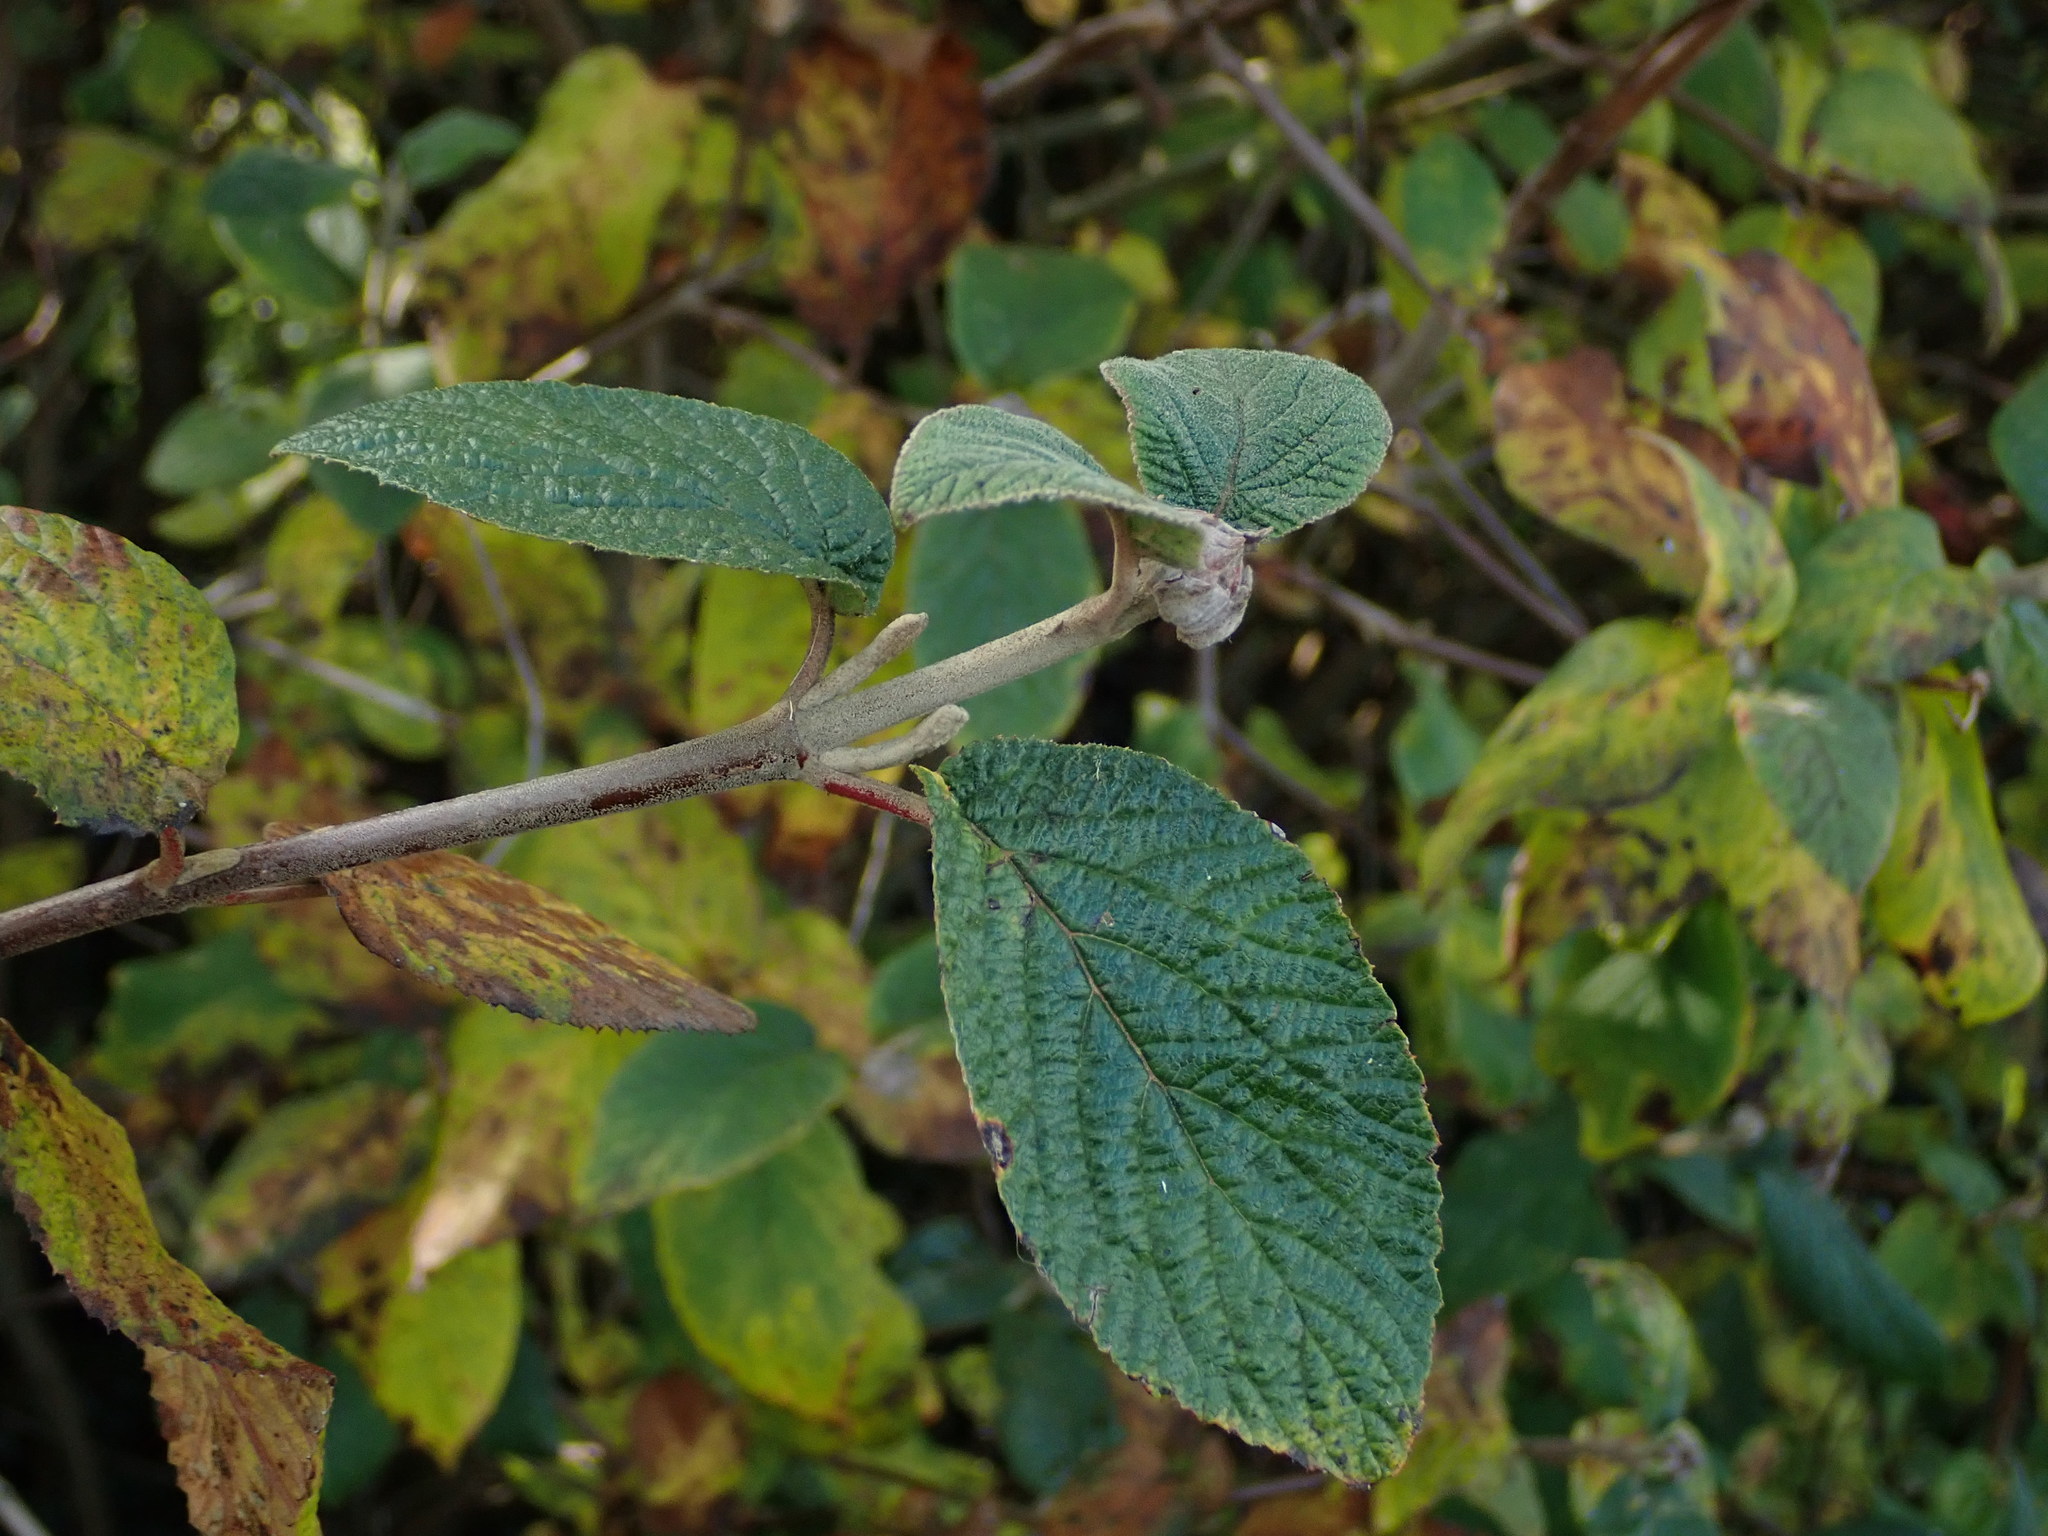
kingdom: Plantae
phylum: Tracheophyta
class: Magnoliopsida
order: Dipsacales
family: Viburnaceae
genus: Viburnum
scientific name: Viburnum lantana
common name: Wayfaring tree
